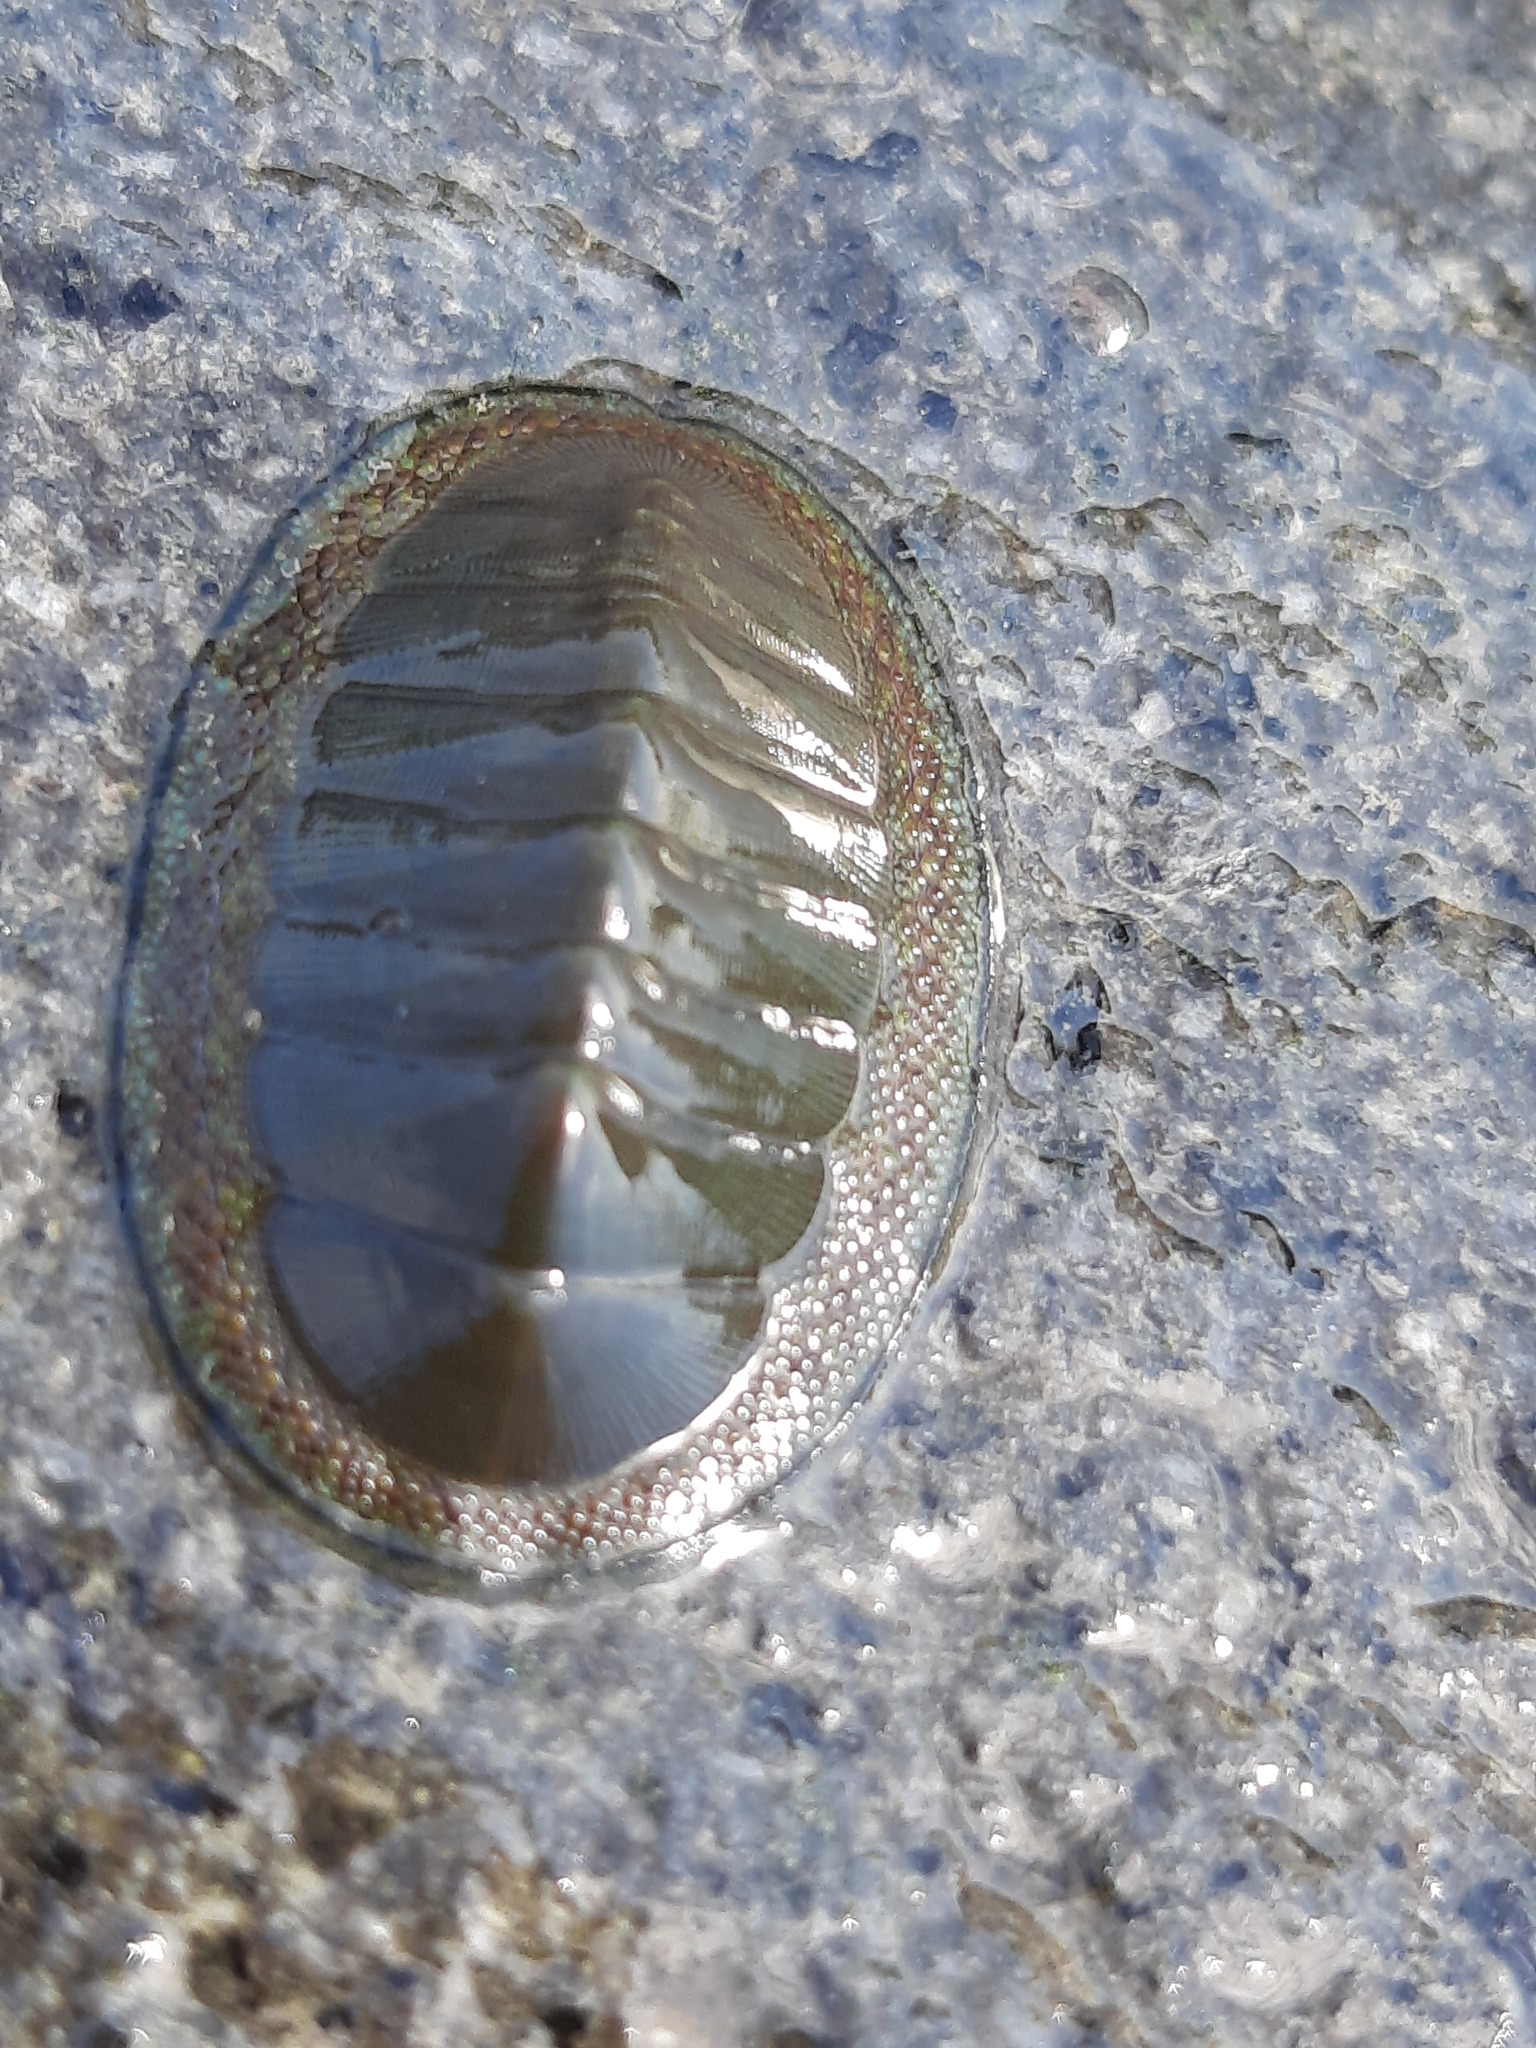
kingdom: Animalia
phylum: Mollusca
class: Polyplacophora
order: Chitonida
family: Chitonidae
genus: Chiton
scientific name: Chiton glaucus
